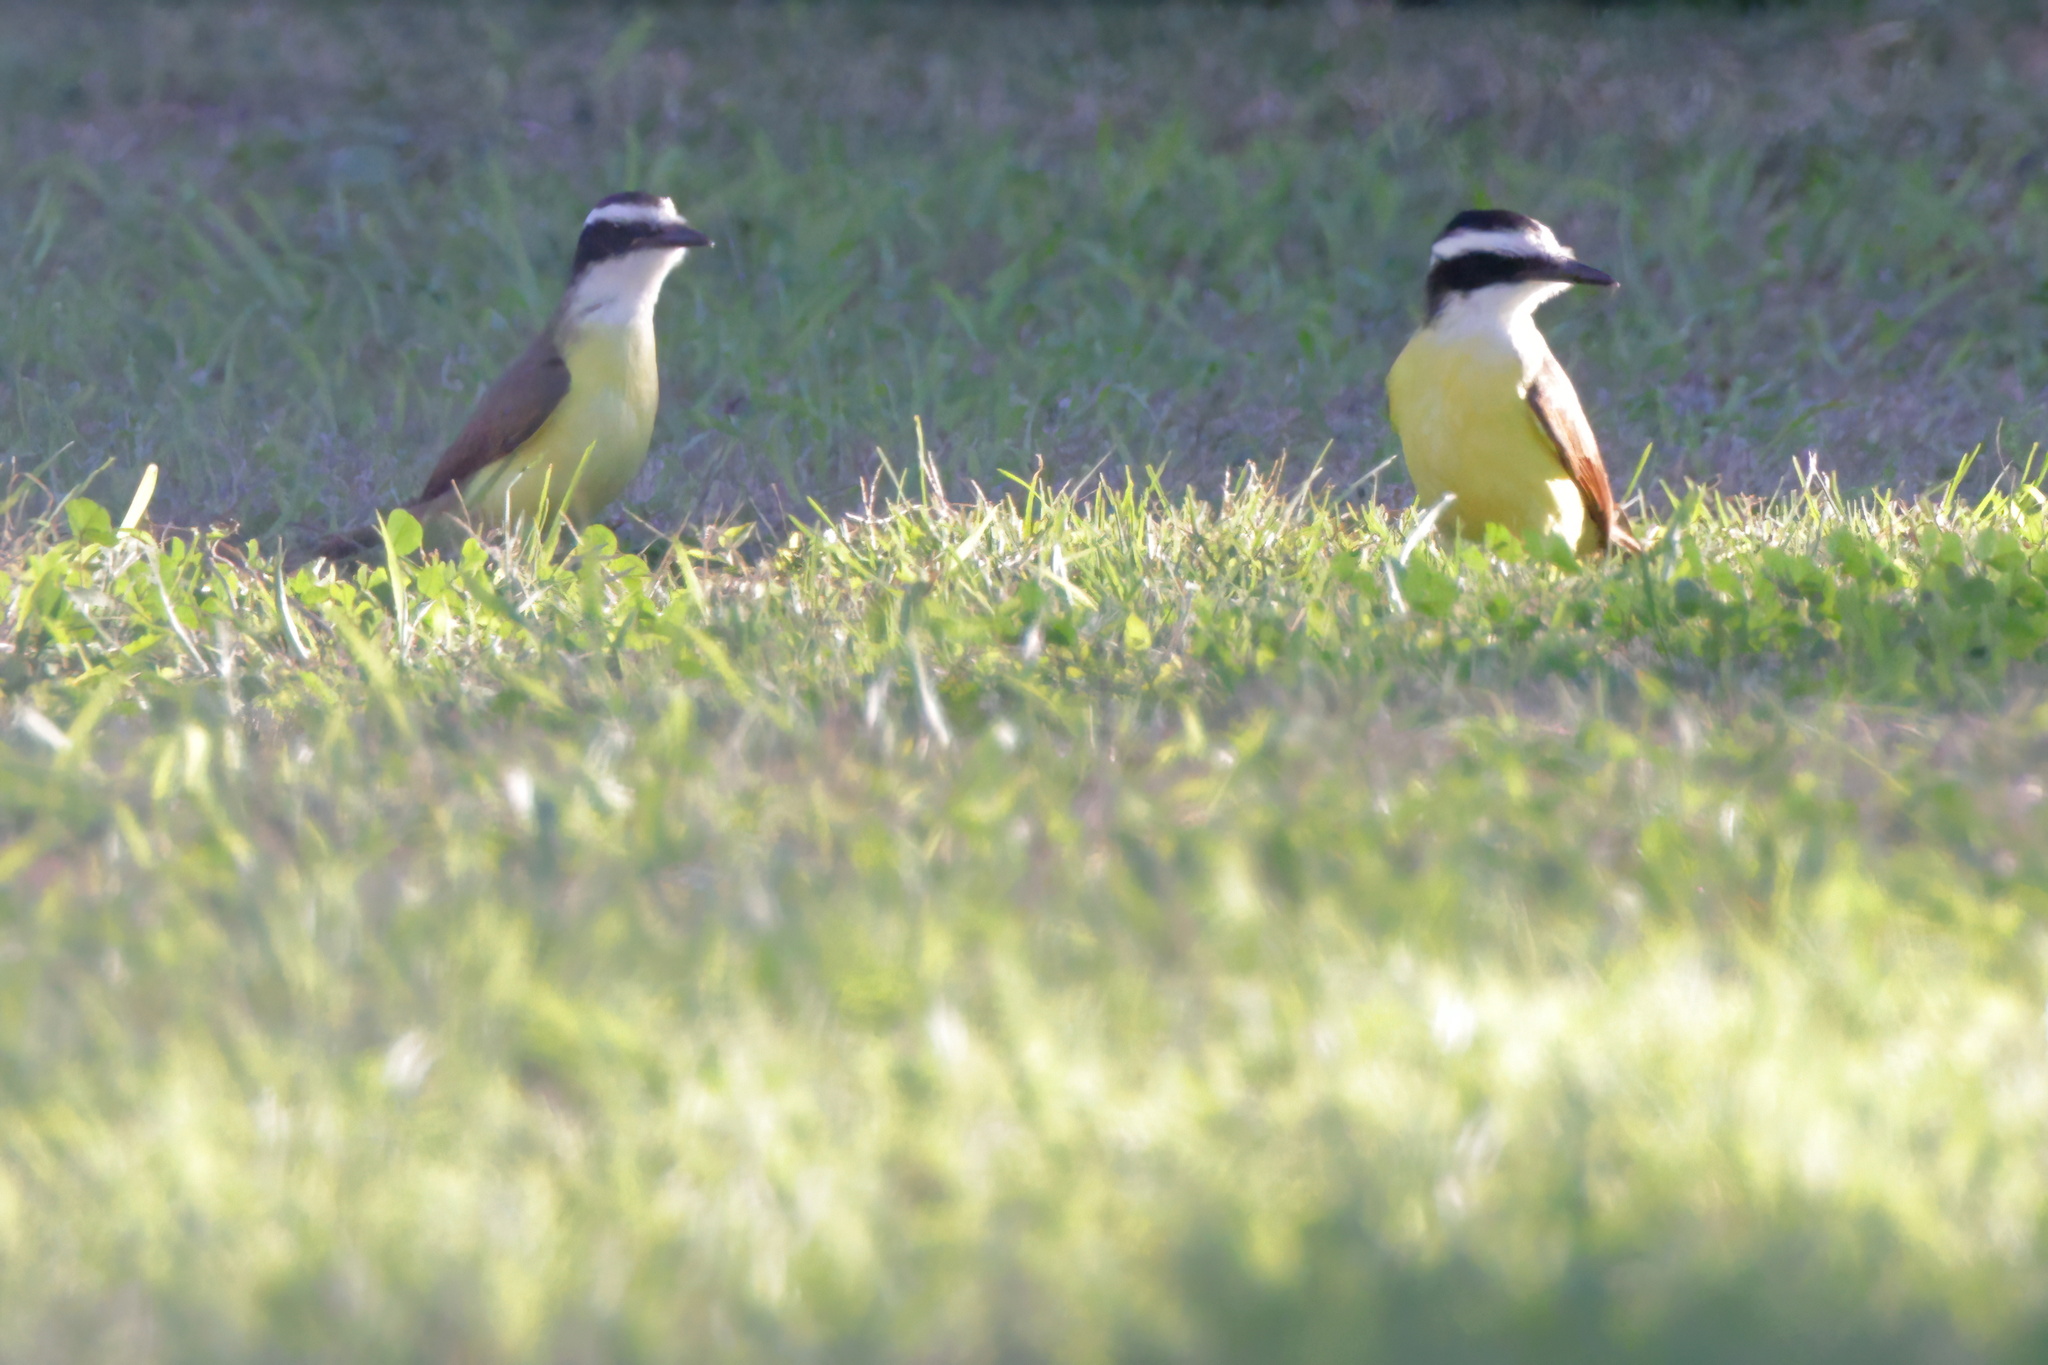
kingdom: Animalia
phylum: Chordata
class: Aves
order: Passeriformes
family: Tyrannidae
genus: Pitangus
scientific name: Pitangus sulphuratus
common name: Great kiskadee
